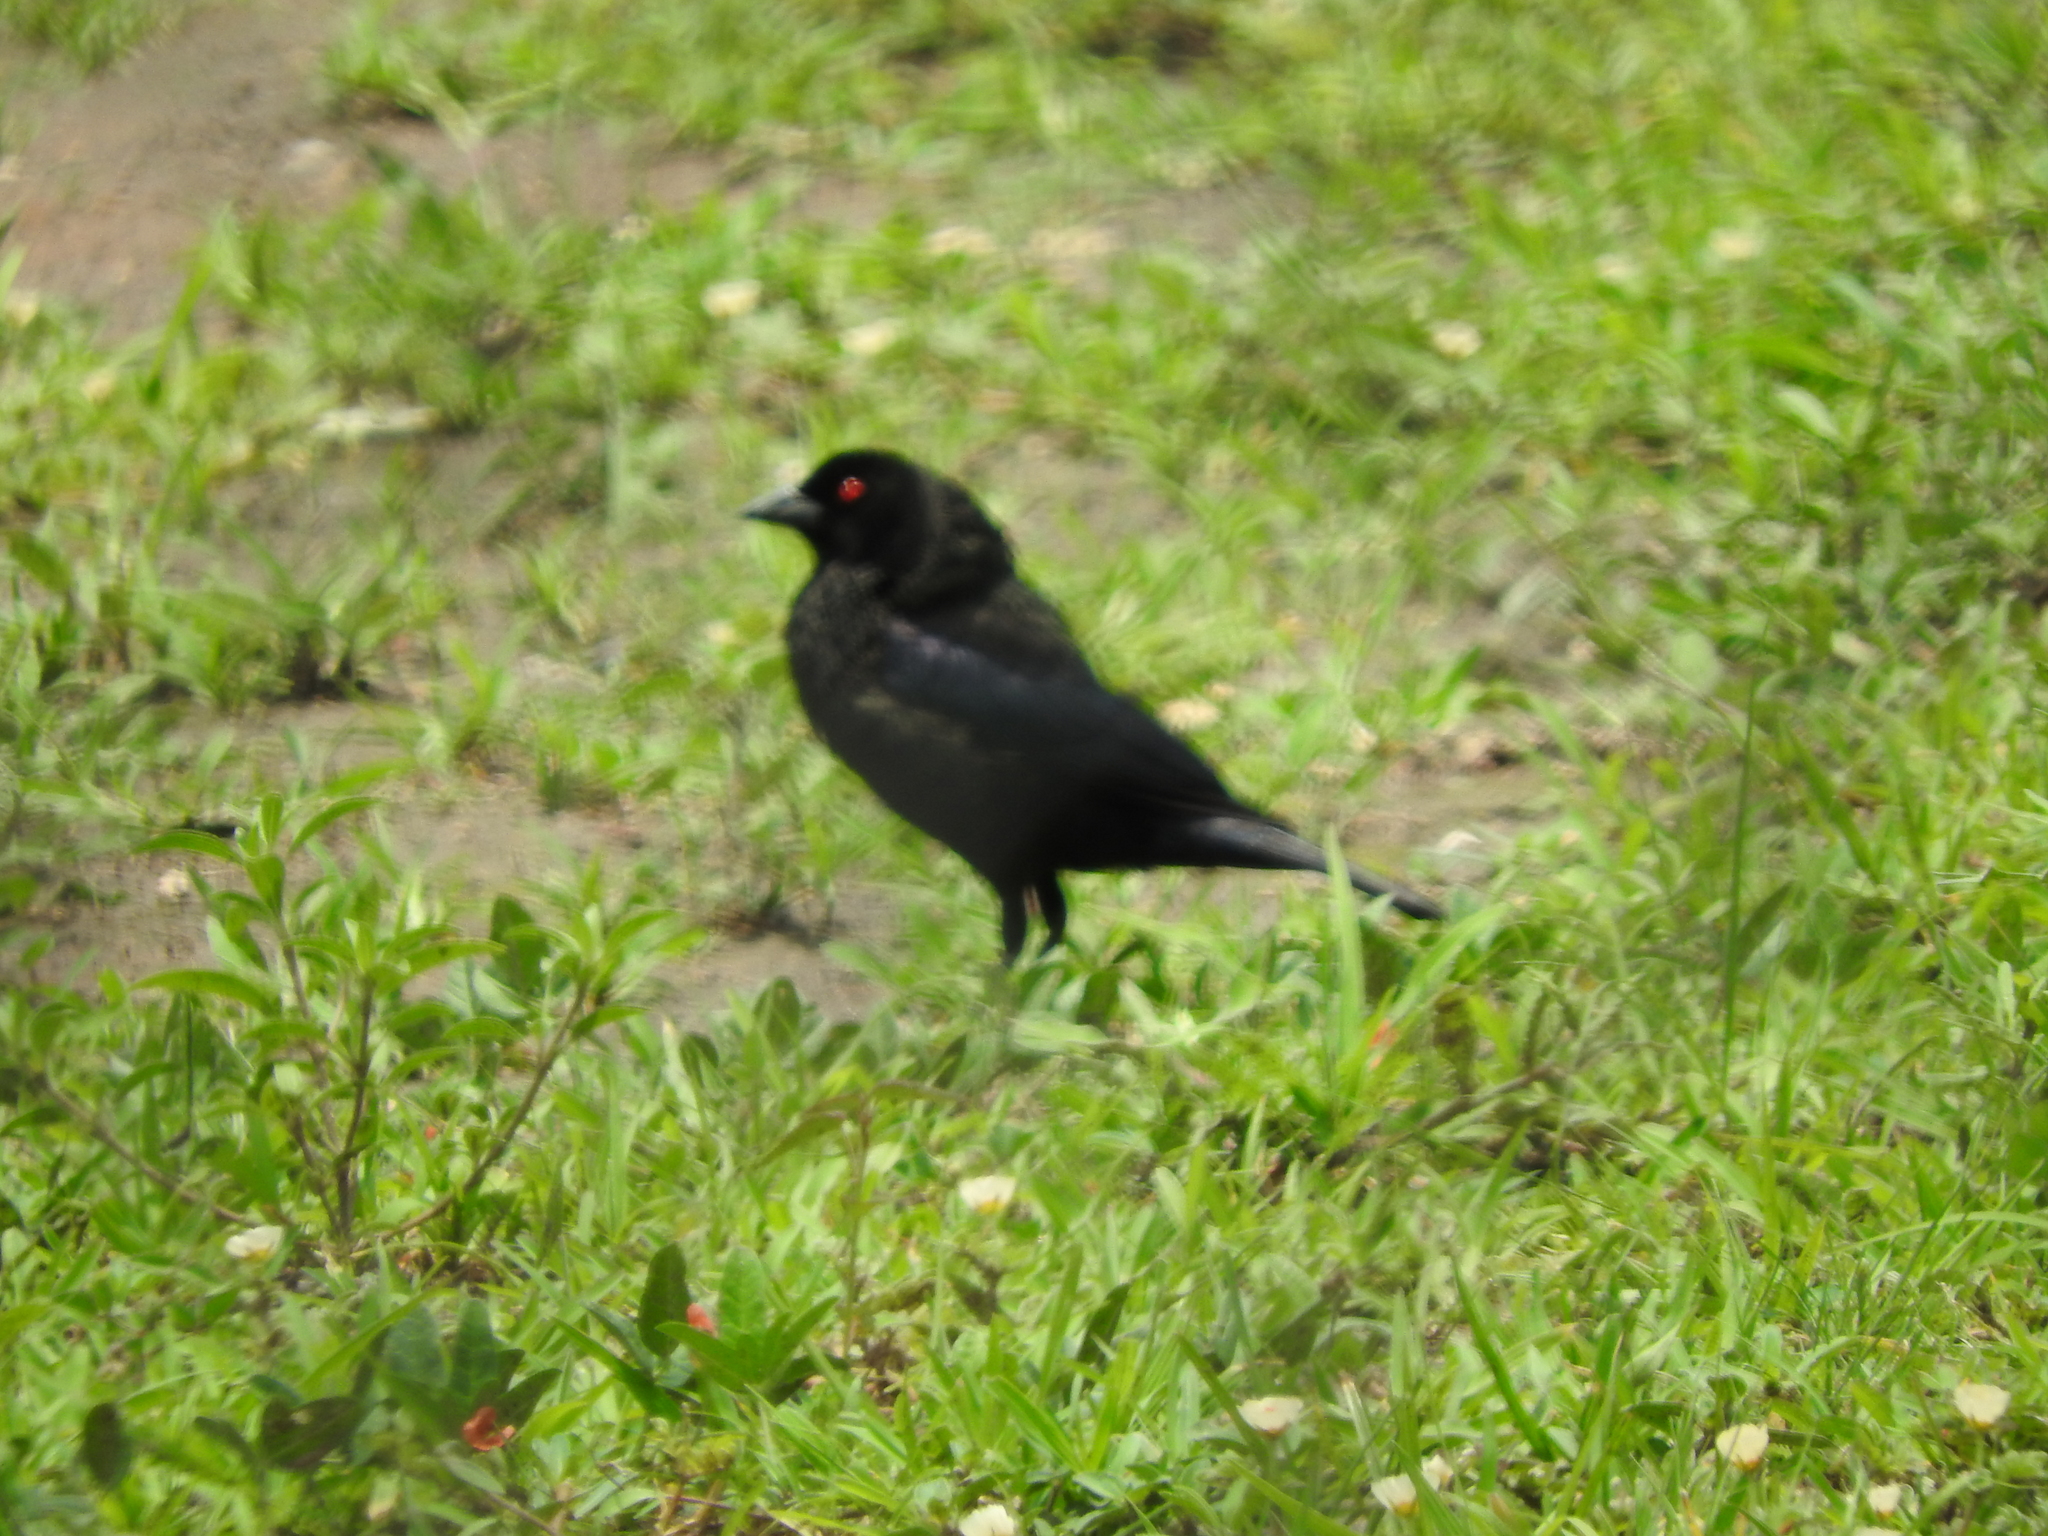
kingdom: Animalia
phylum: Chordata
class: Aves
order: Passeriformes
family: Icteridae
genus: Molothrus
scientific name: Molothrus aeneus
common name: Bronzed cowbird
